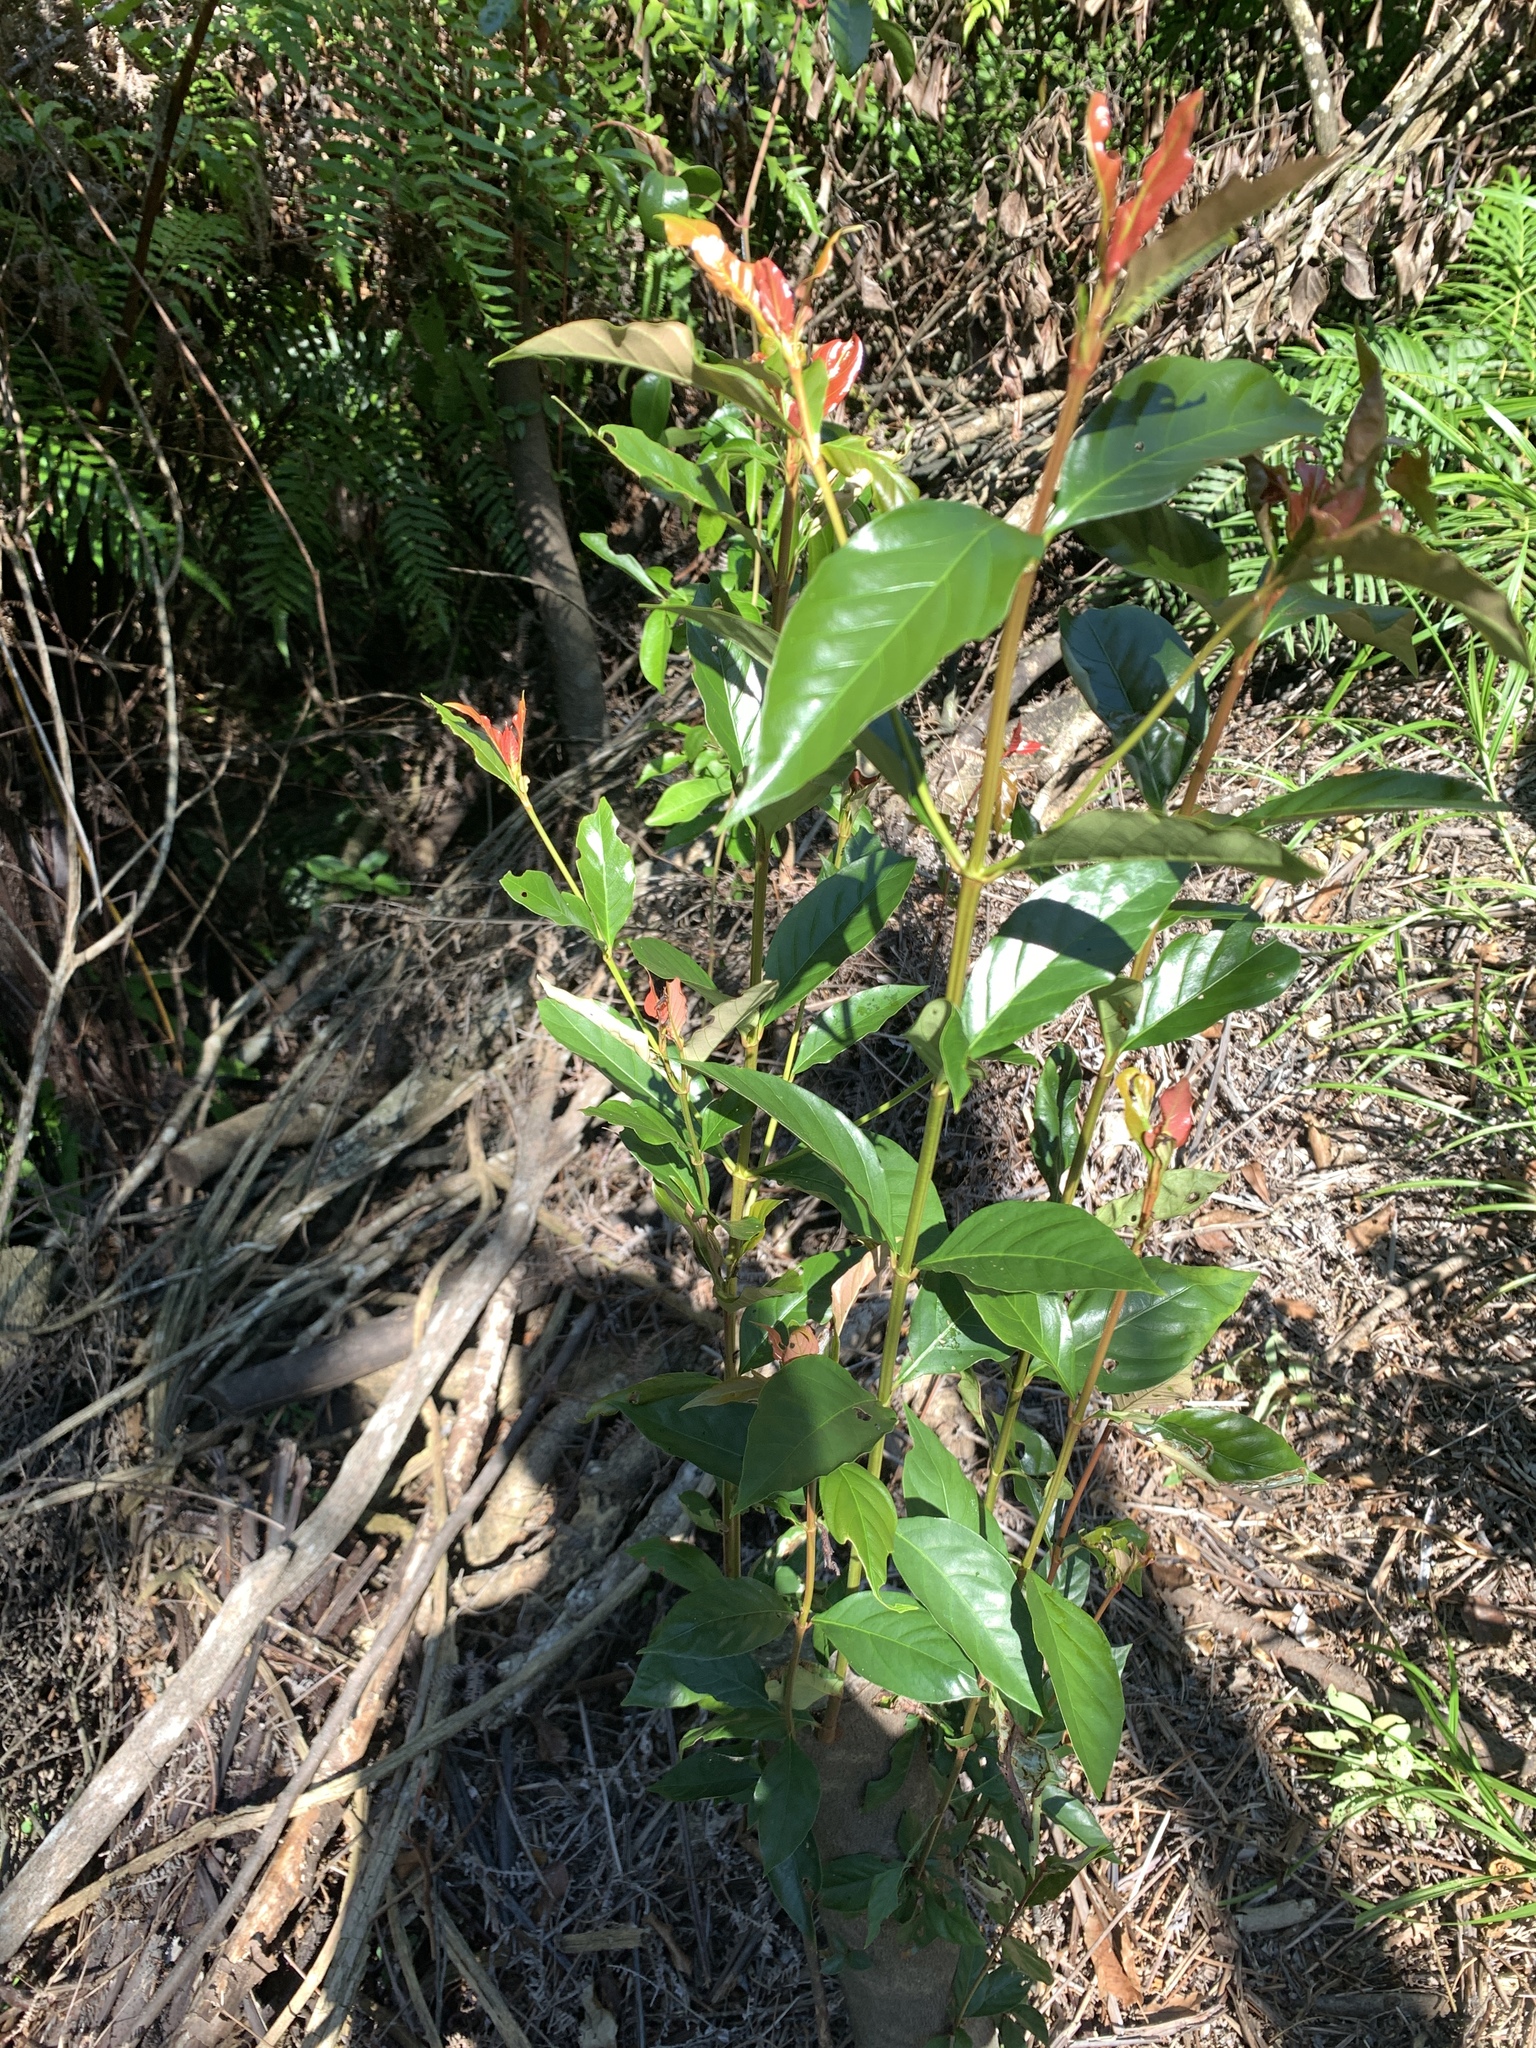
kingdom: Plantae
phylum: Tracheophyta
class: Magnoliopsida
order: Gentianales
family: Rubiaceae
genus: Aidia
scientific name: Aidia cochinchinensis
